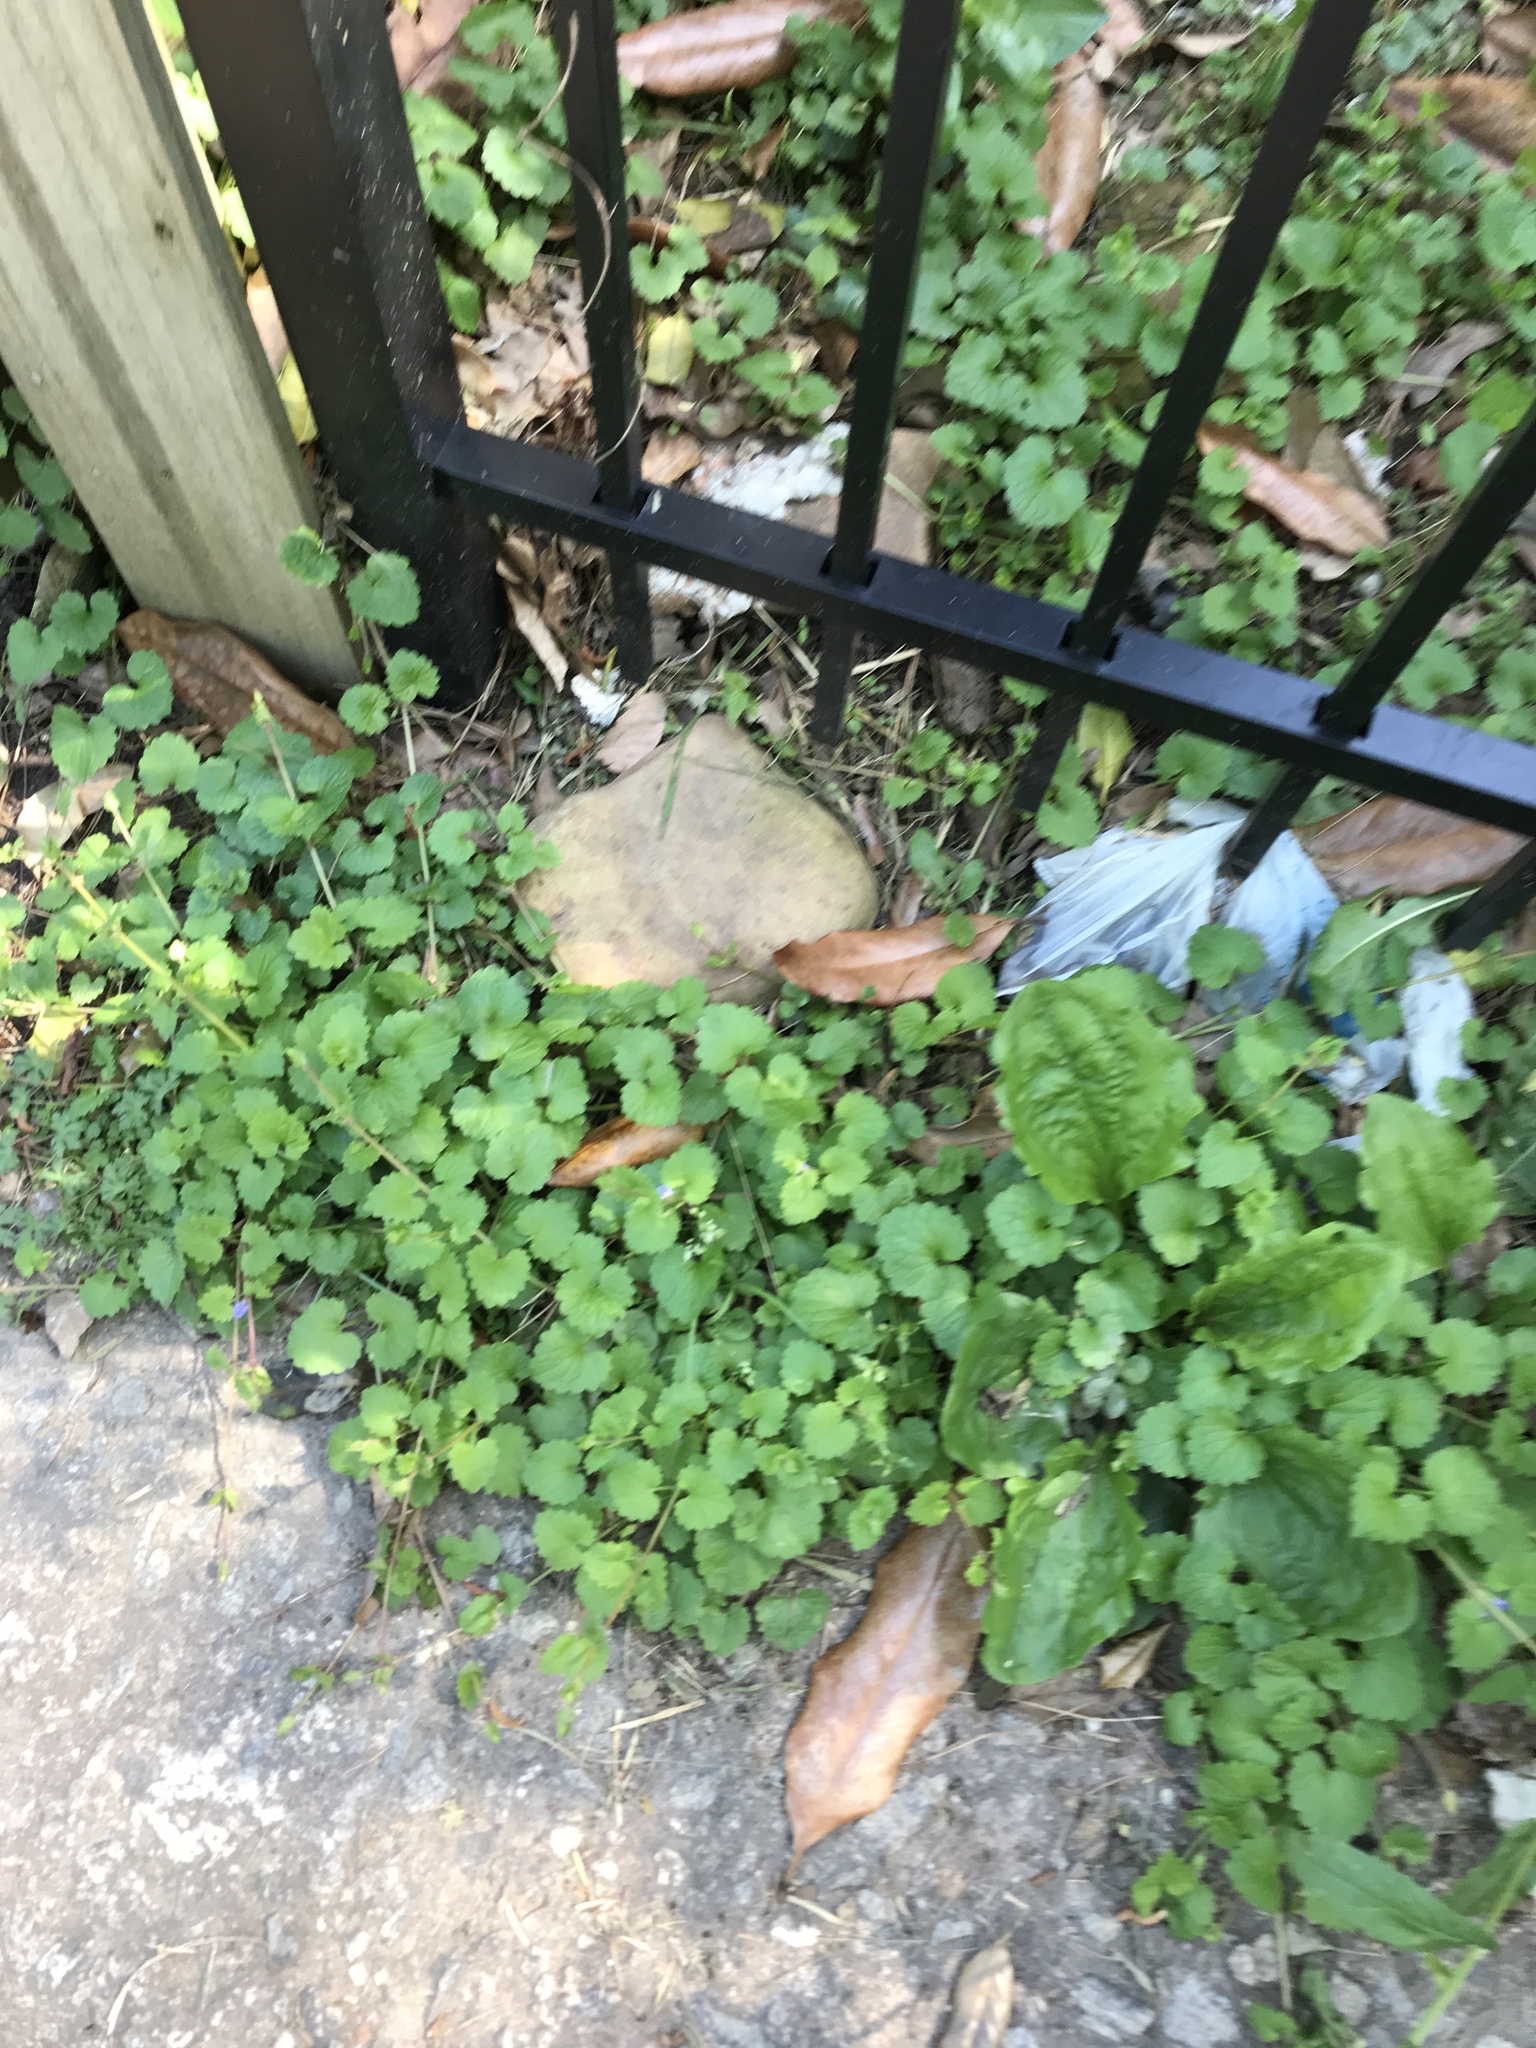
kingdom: Plantae
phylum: Tracheophyta
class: Magnoliopsida
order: Lamiales
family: Lamiaceae
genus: Glechoma
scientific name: Glechoma hederacea
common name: Ground ivy
